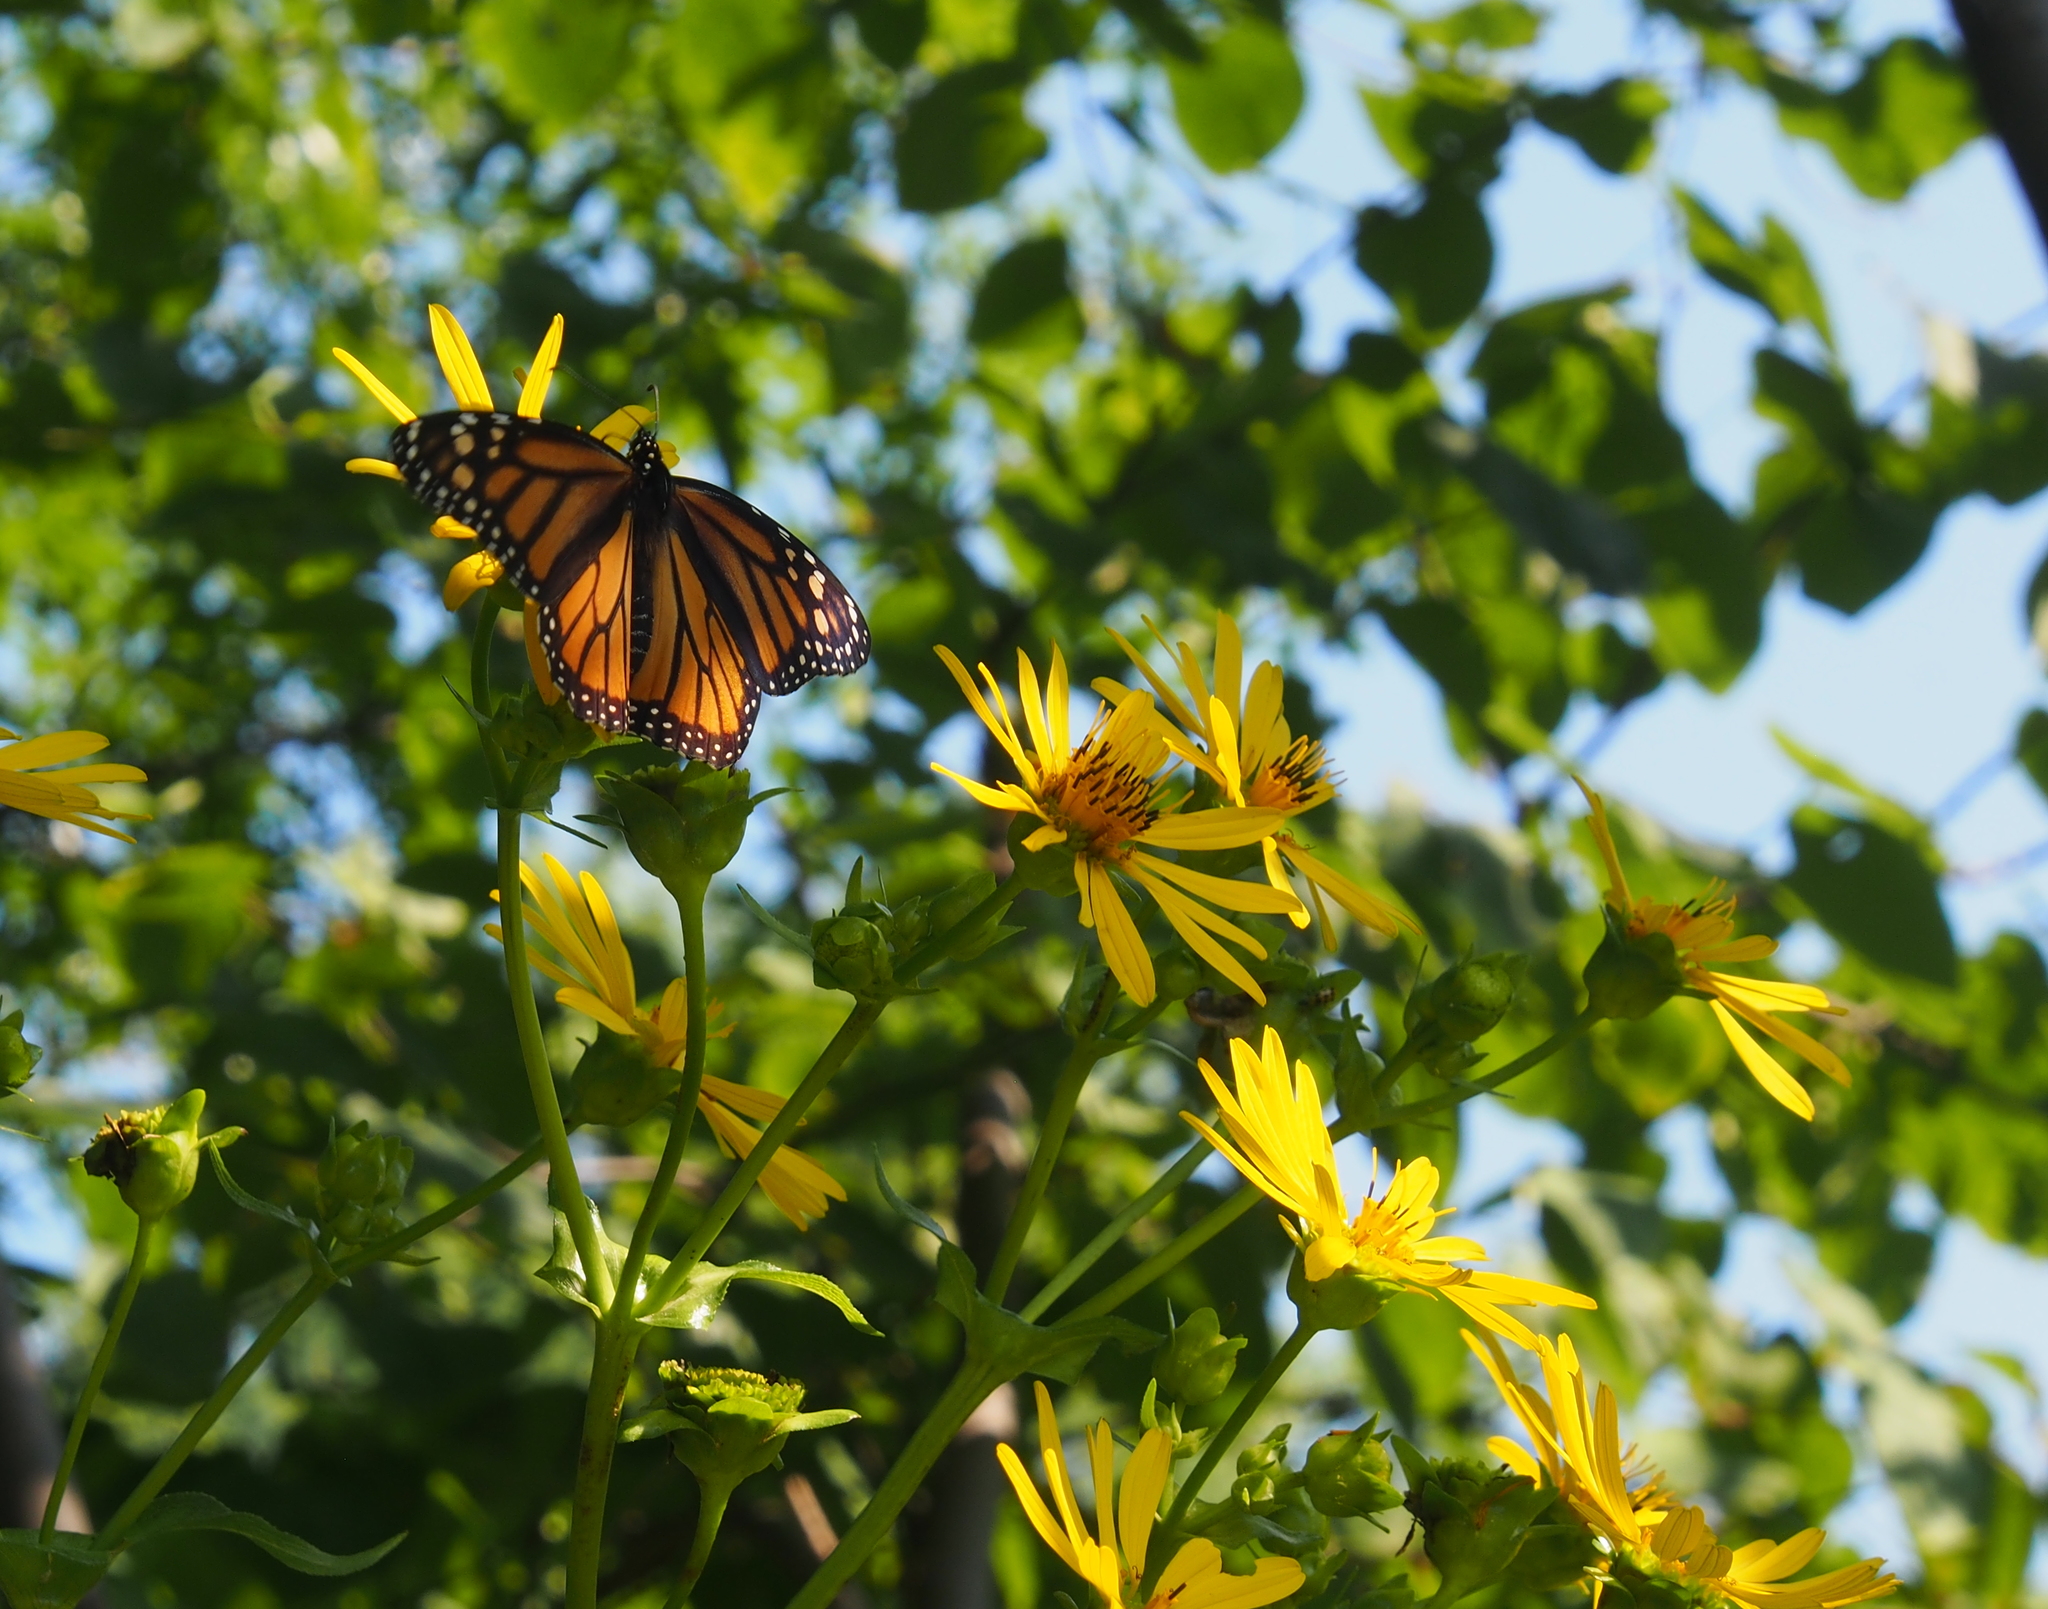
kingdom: Animalia
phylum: Arthropoda
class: Insecta
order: Lepidoptera
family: Nymphalidae
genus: Danaus
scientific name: Danaus plexippus
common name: Monarch
